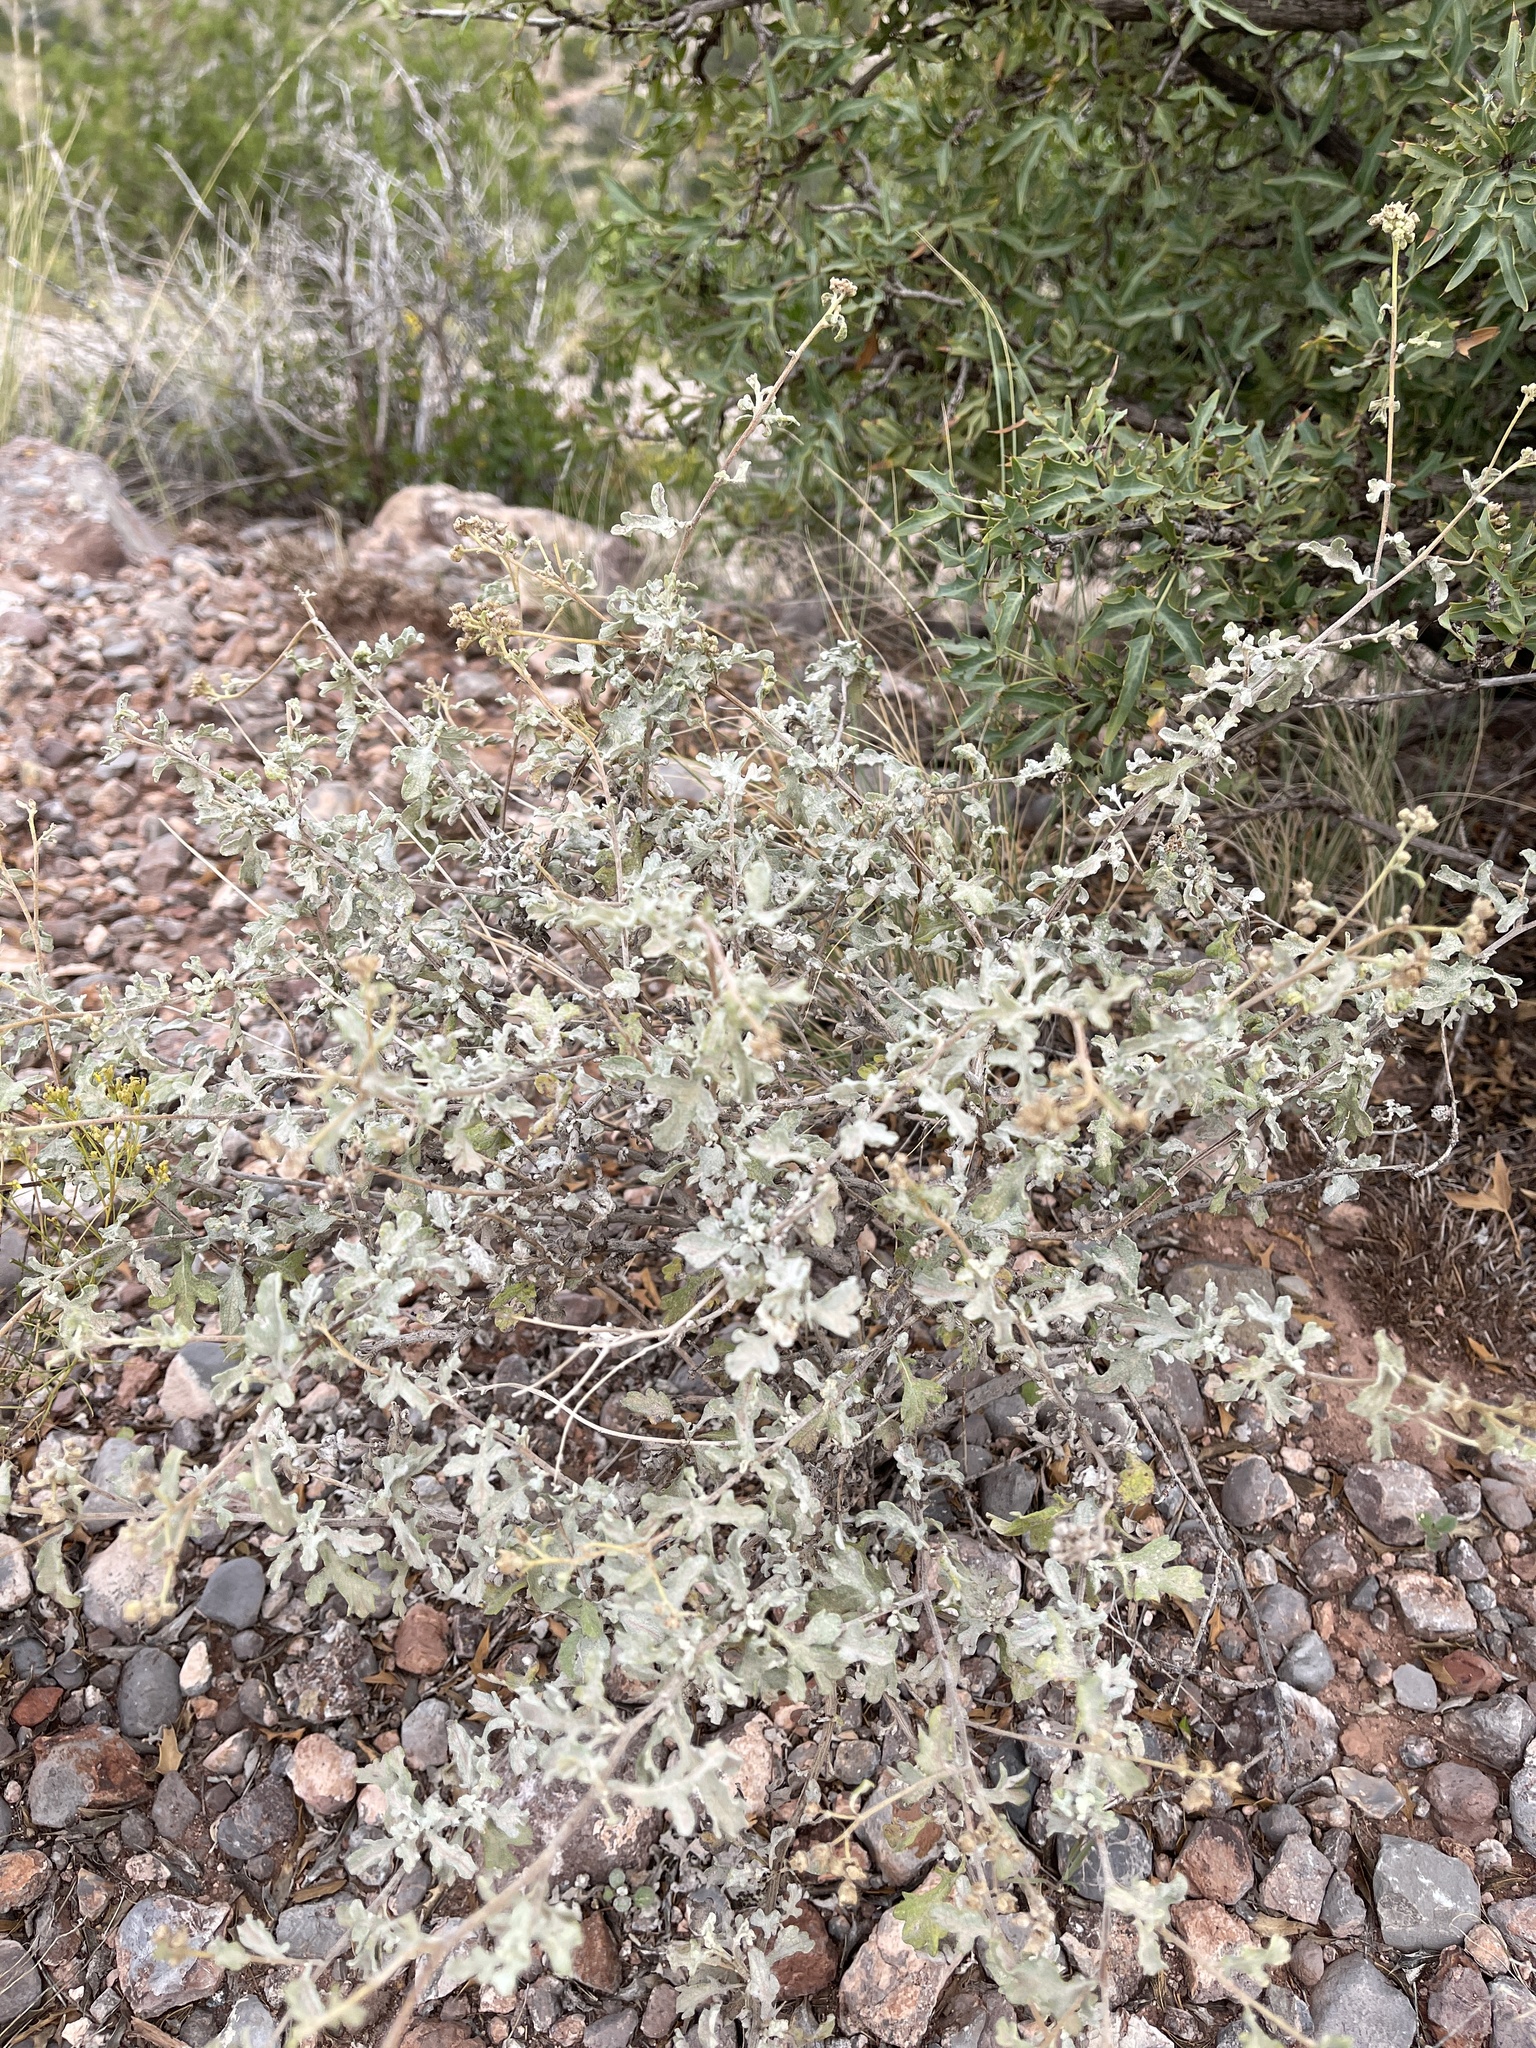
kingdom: Plantae
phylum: Tracheophyta
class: Magnoliopsida
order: Asterales
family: Asteraceae
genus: Parthenium
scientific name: Parthenium incanum
